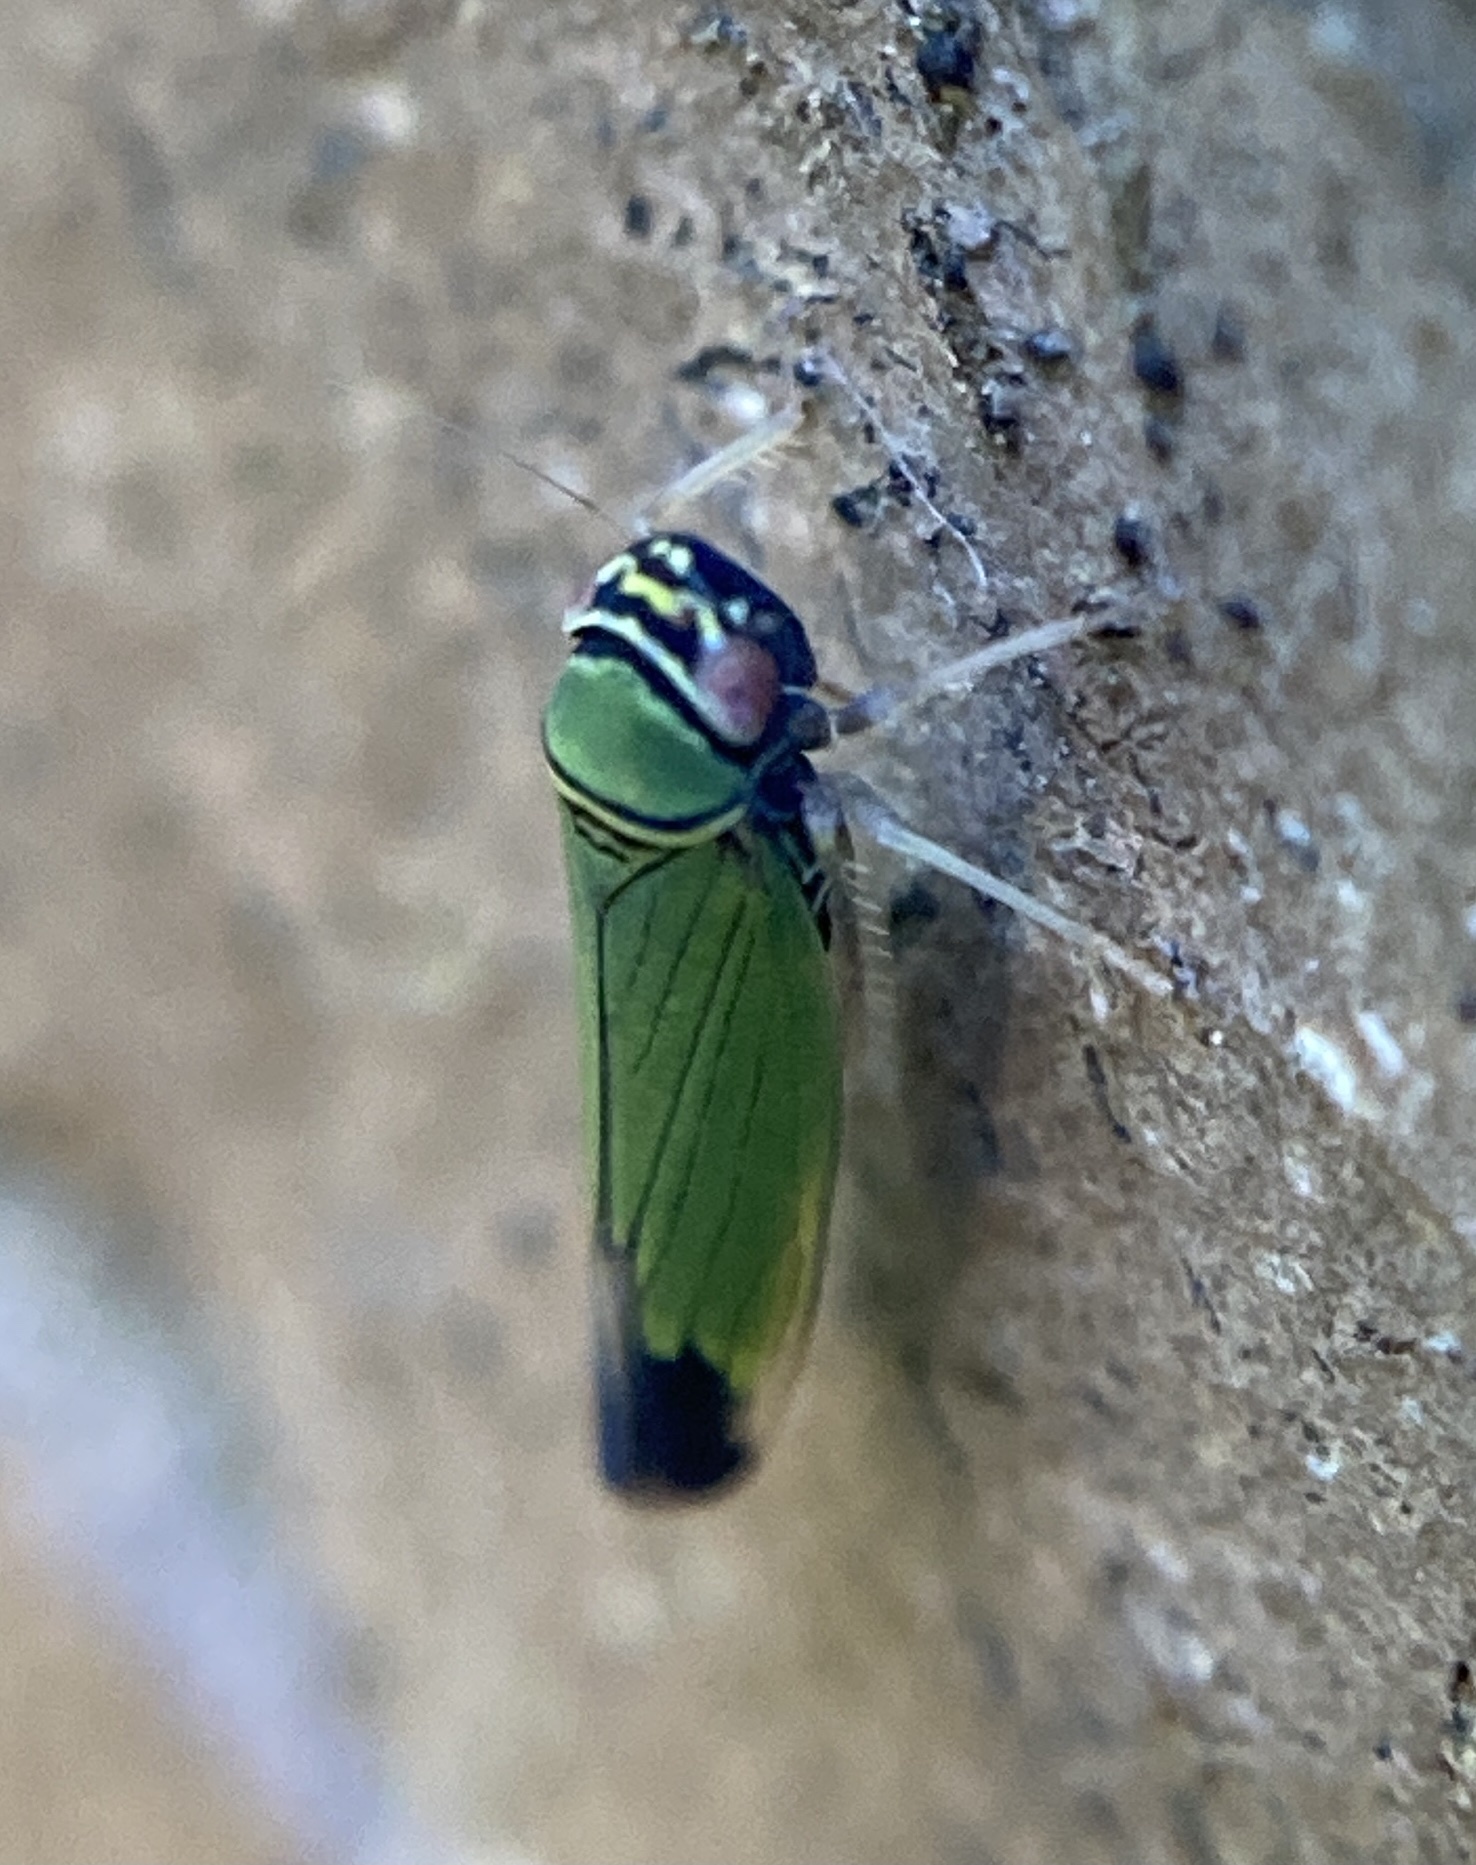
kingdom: Animalia
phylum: Arthropoda
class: Insecta
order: Hemiptera
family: Cicadellidae
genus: Tylozygus
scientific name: Tylozygus geometricus
